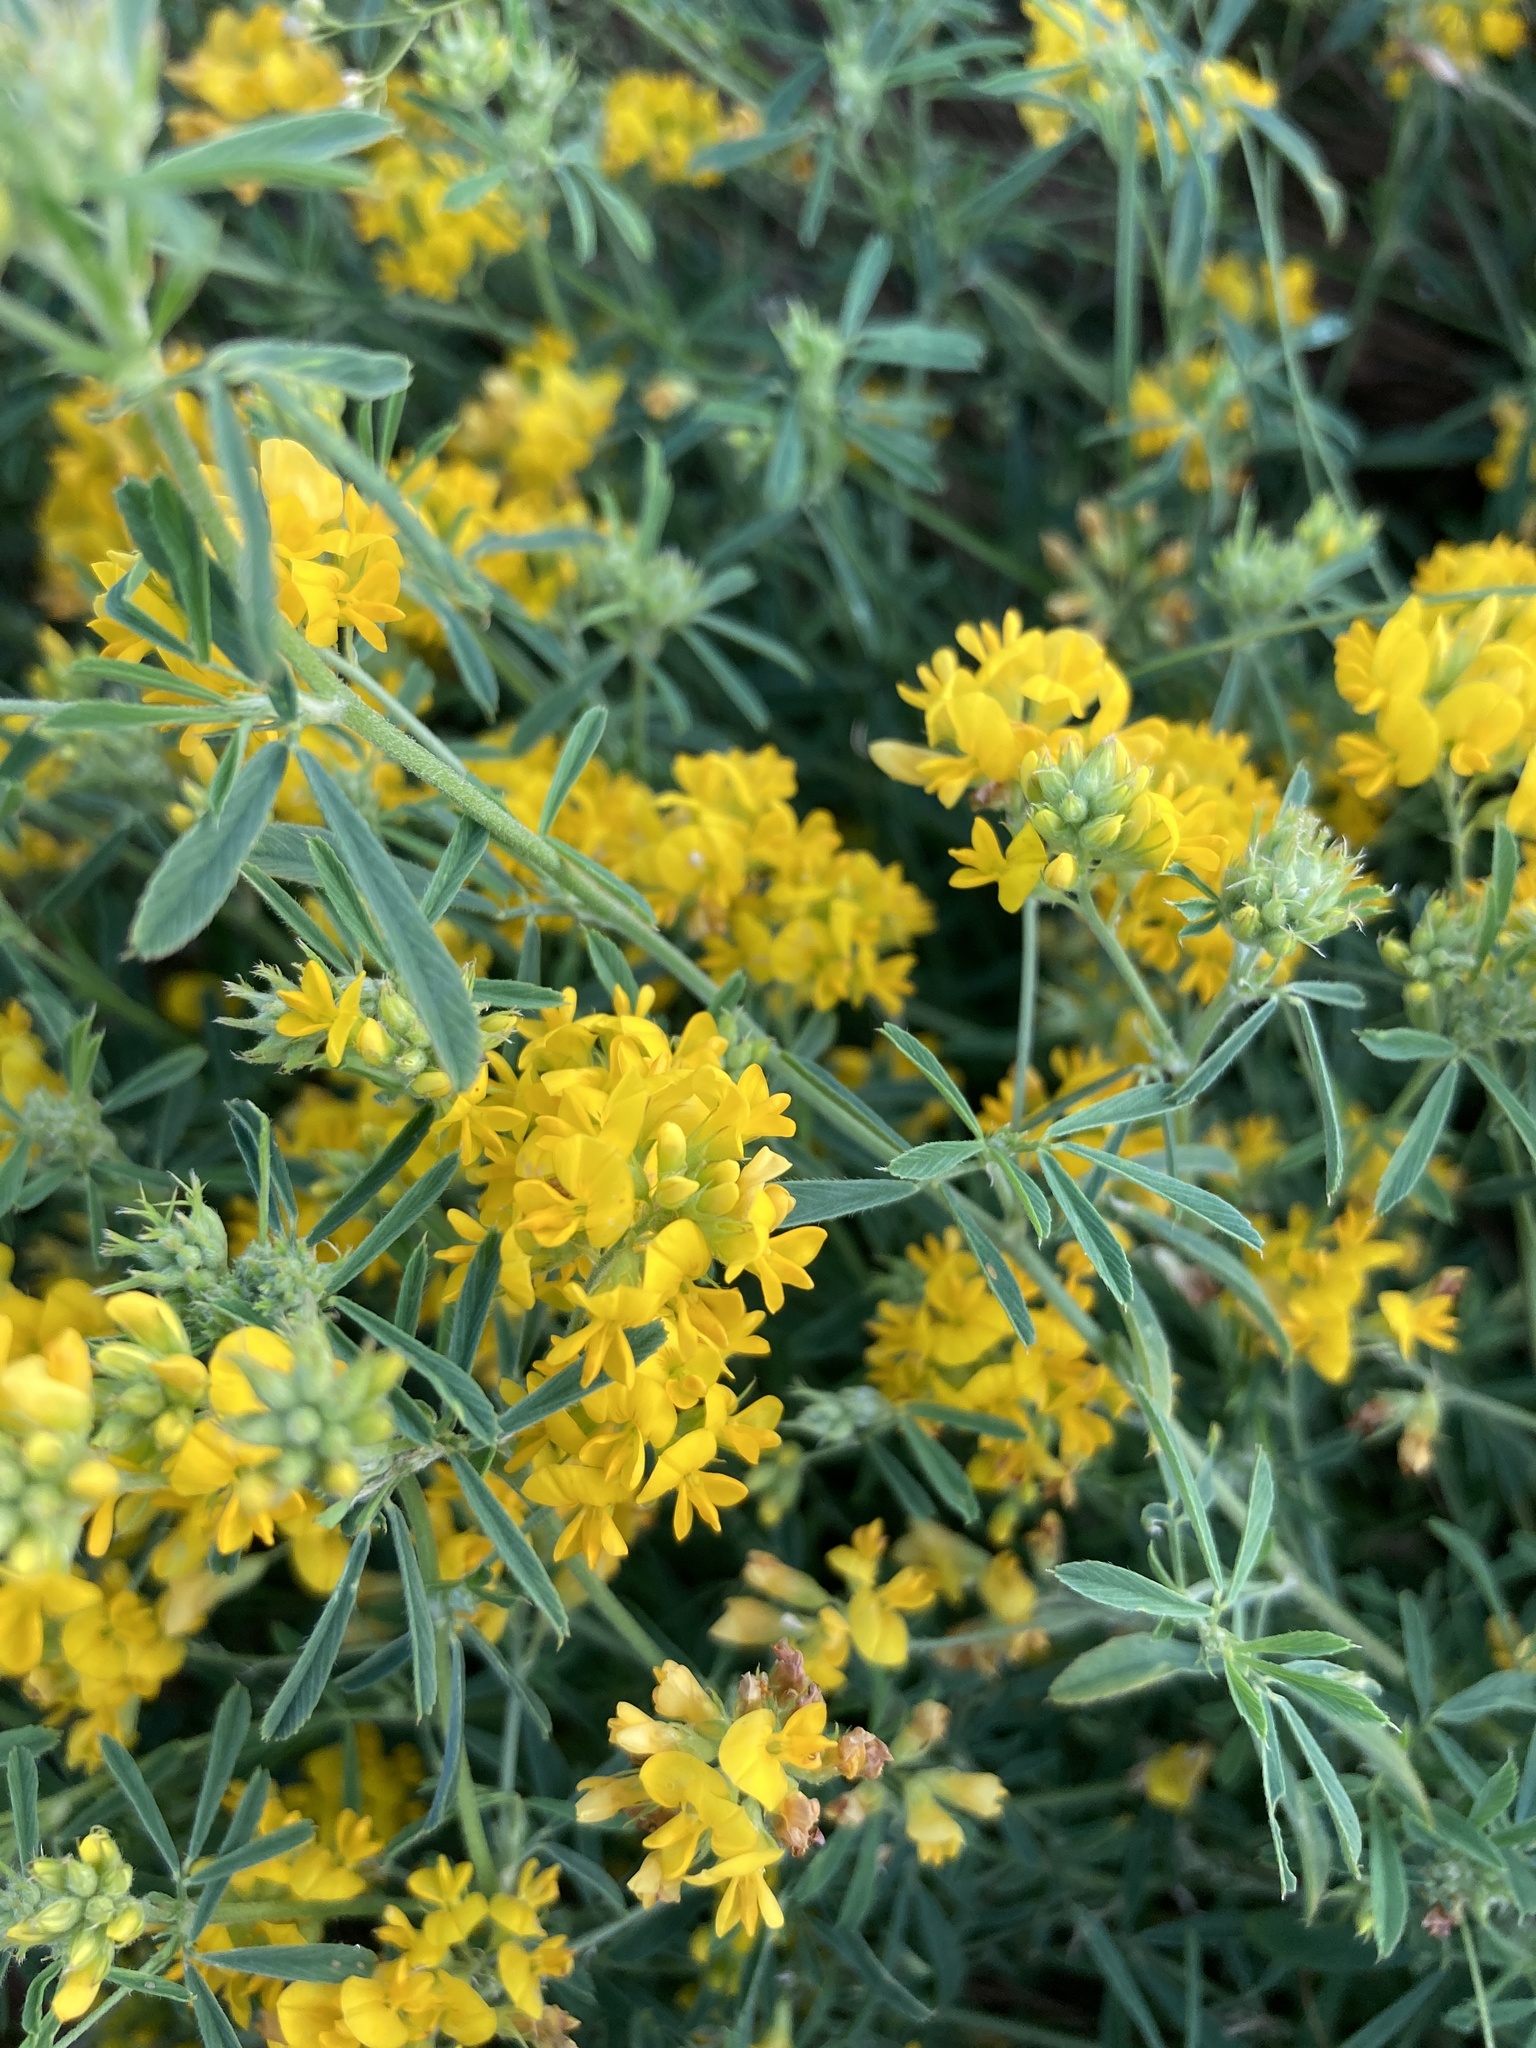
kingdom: Plantae
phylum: Tracheophyta
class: Magnoliopsida
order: Fabales
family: Fabaceae
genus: Medicago
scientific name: Medicago falcata
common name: Sickle medick
